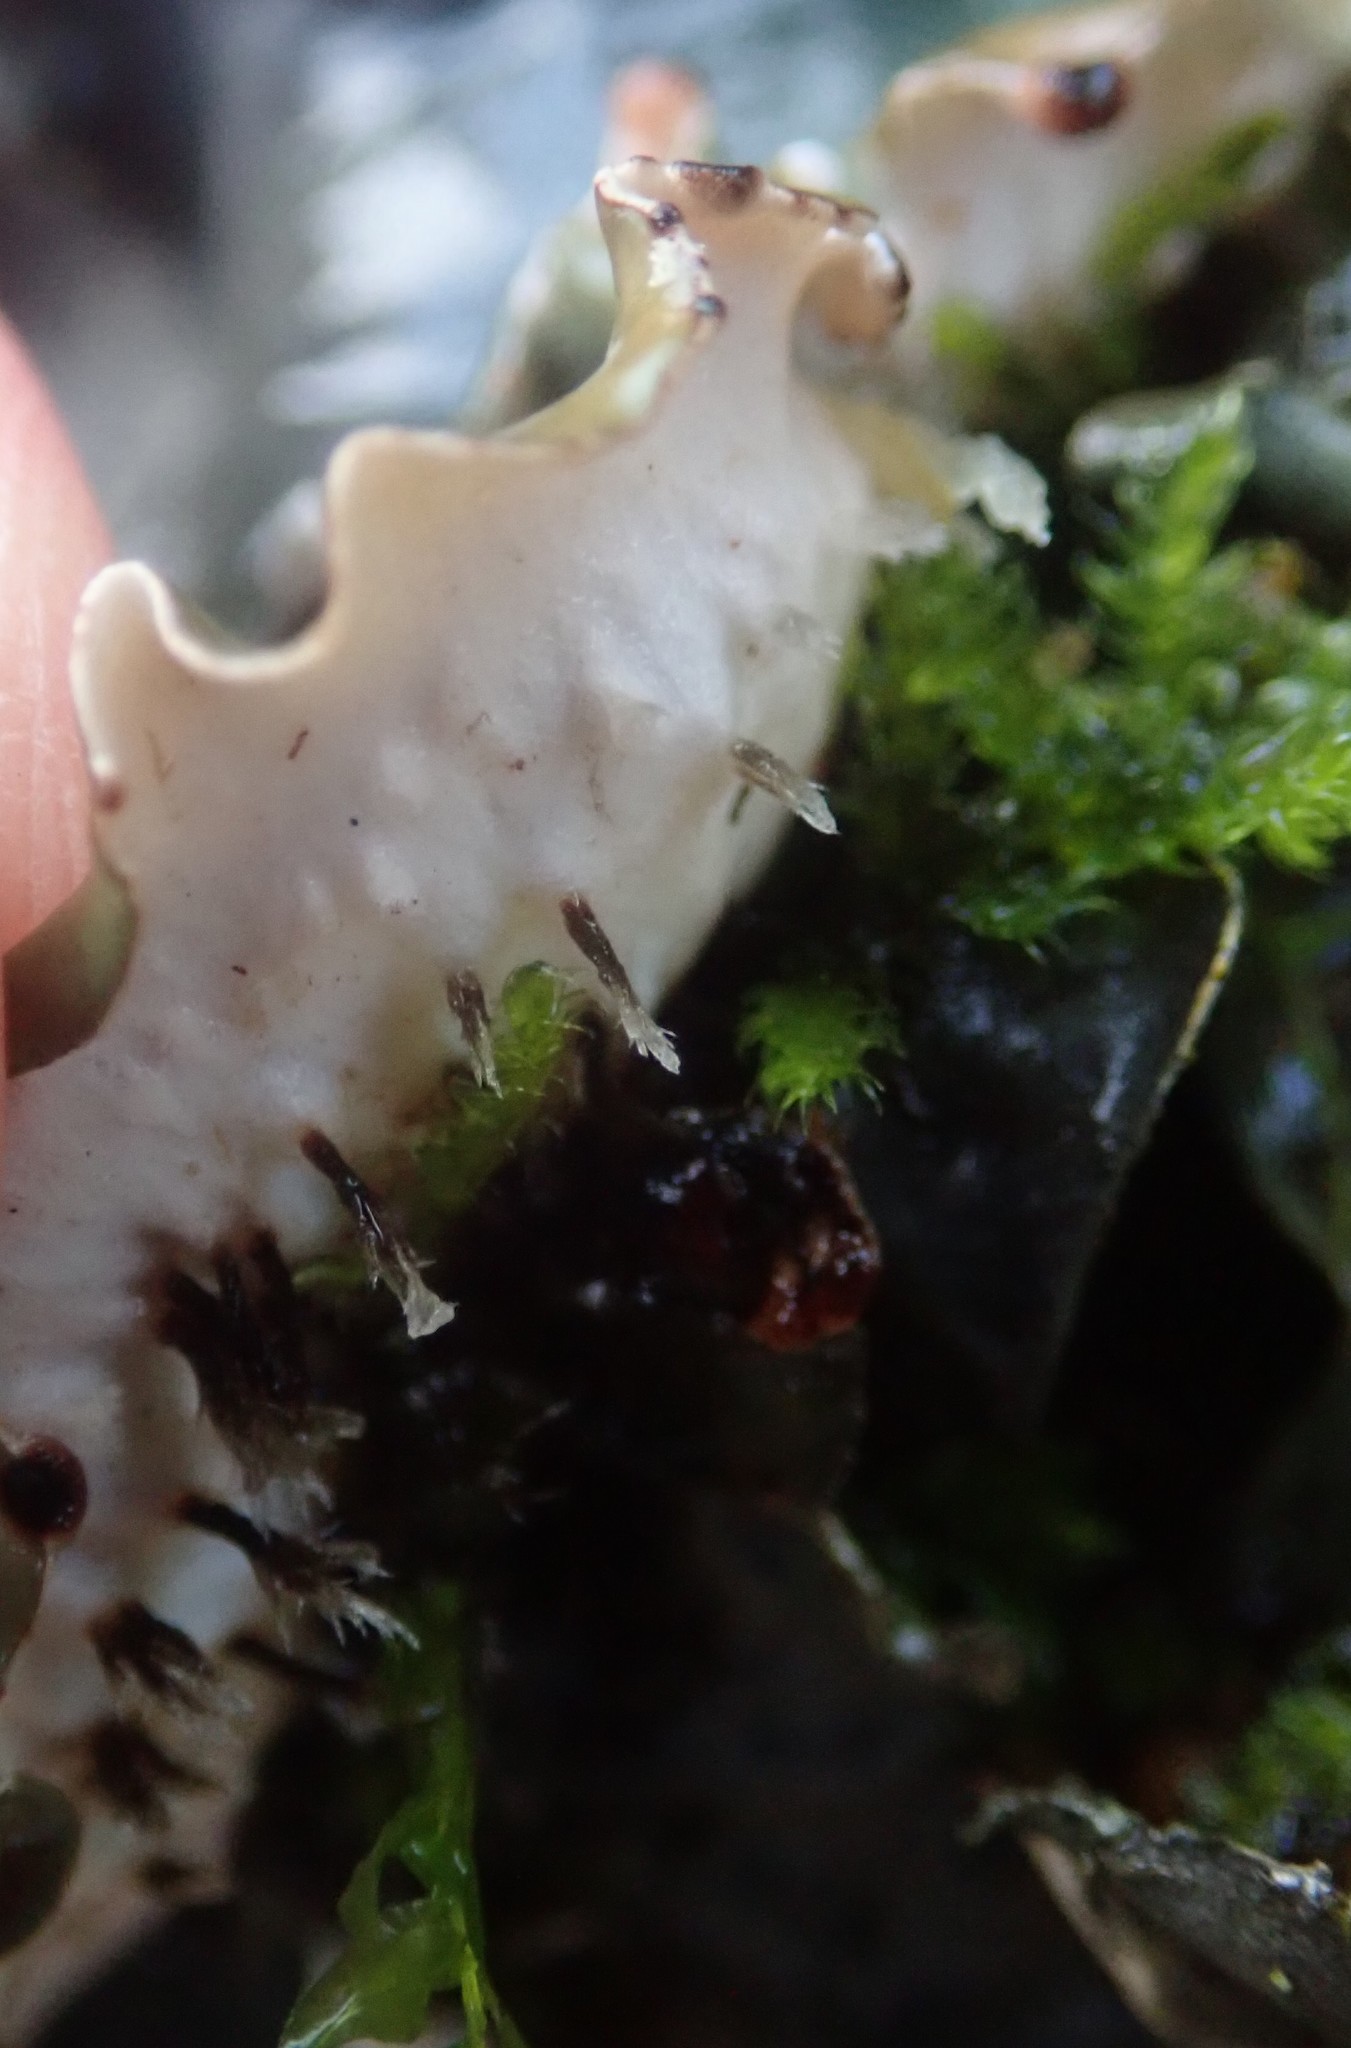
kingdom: Fungi
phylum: Ascomycota
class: Lecanoromycetes
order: Peltigerales
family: Peltigeraceae
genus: Peltigera
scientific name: Peltigera horizontalis
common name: Flat fruited pelt
